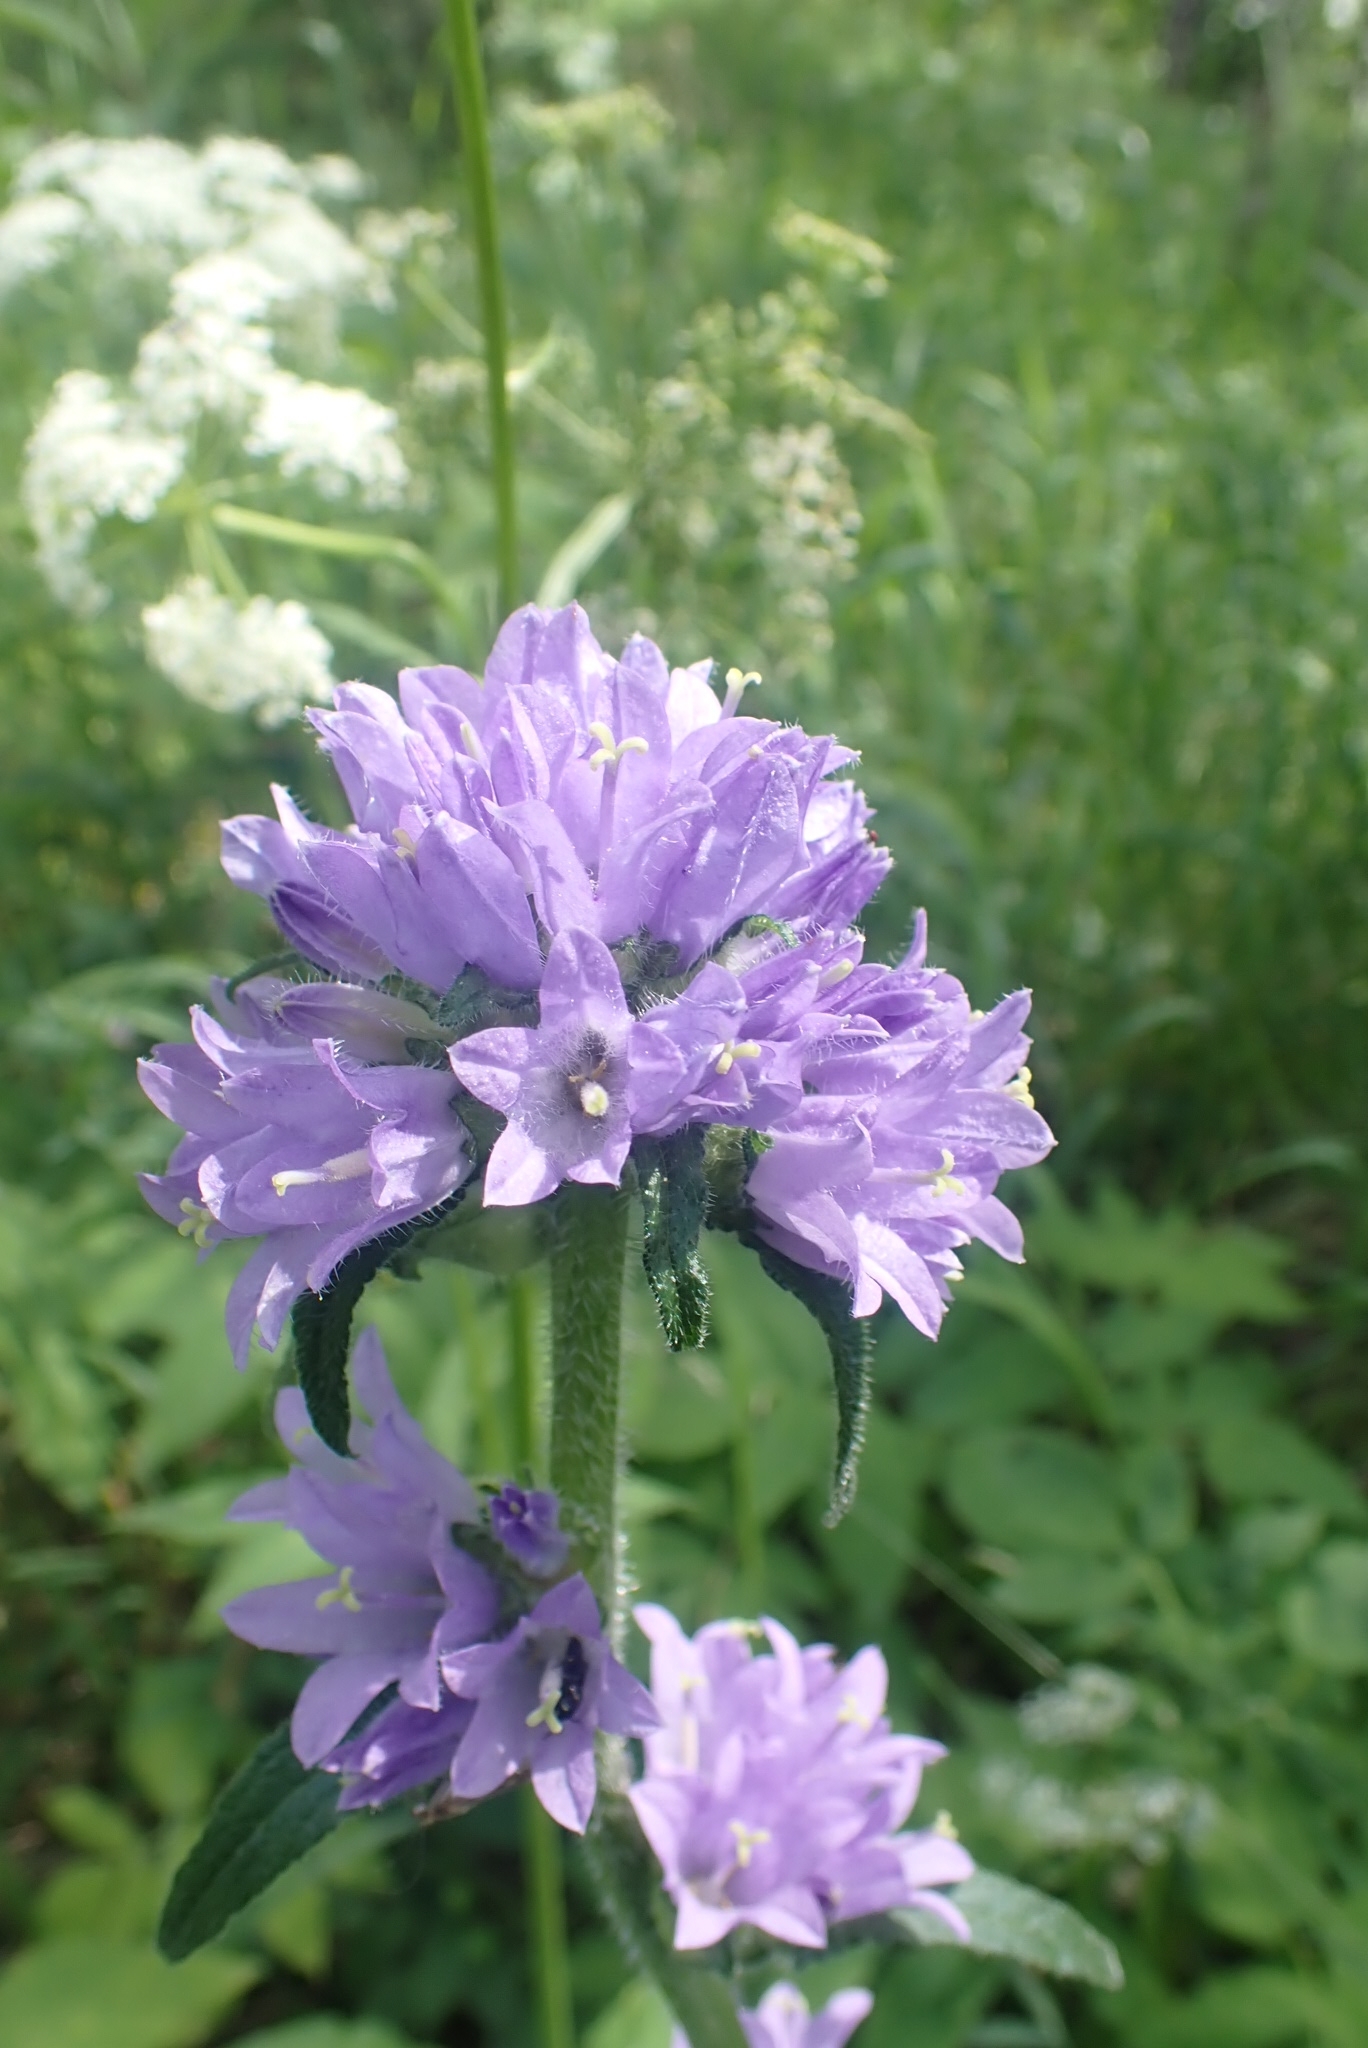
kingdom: Plantae
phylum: Tracheophyta
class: Magnoliopsida
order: Asterales
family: Campanulaceae
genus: Campanula
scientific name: Campanula cervicaria
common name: Bristly bellflower
